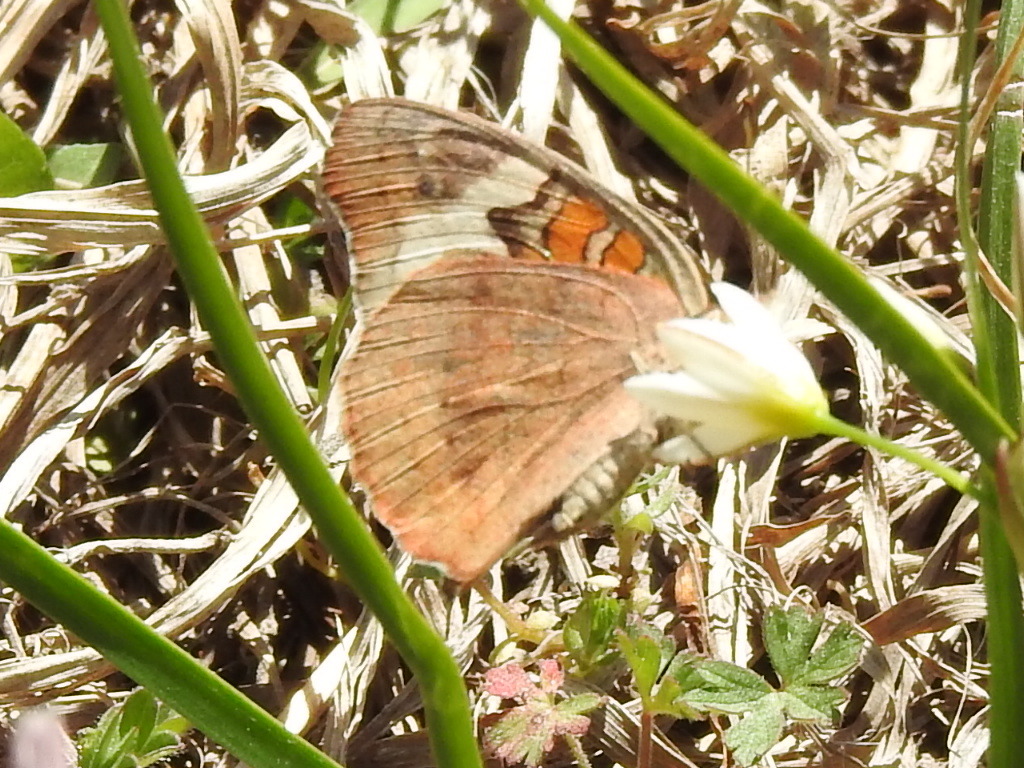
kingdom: Animalia
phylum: Arthropoda
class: Insecta
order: Lepidoptera
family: Nymphalidae
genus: Junonia
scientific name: Junonia coenia
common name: Common buckeye
